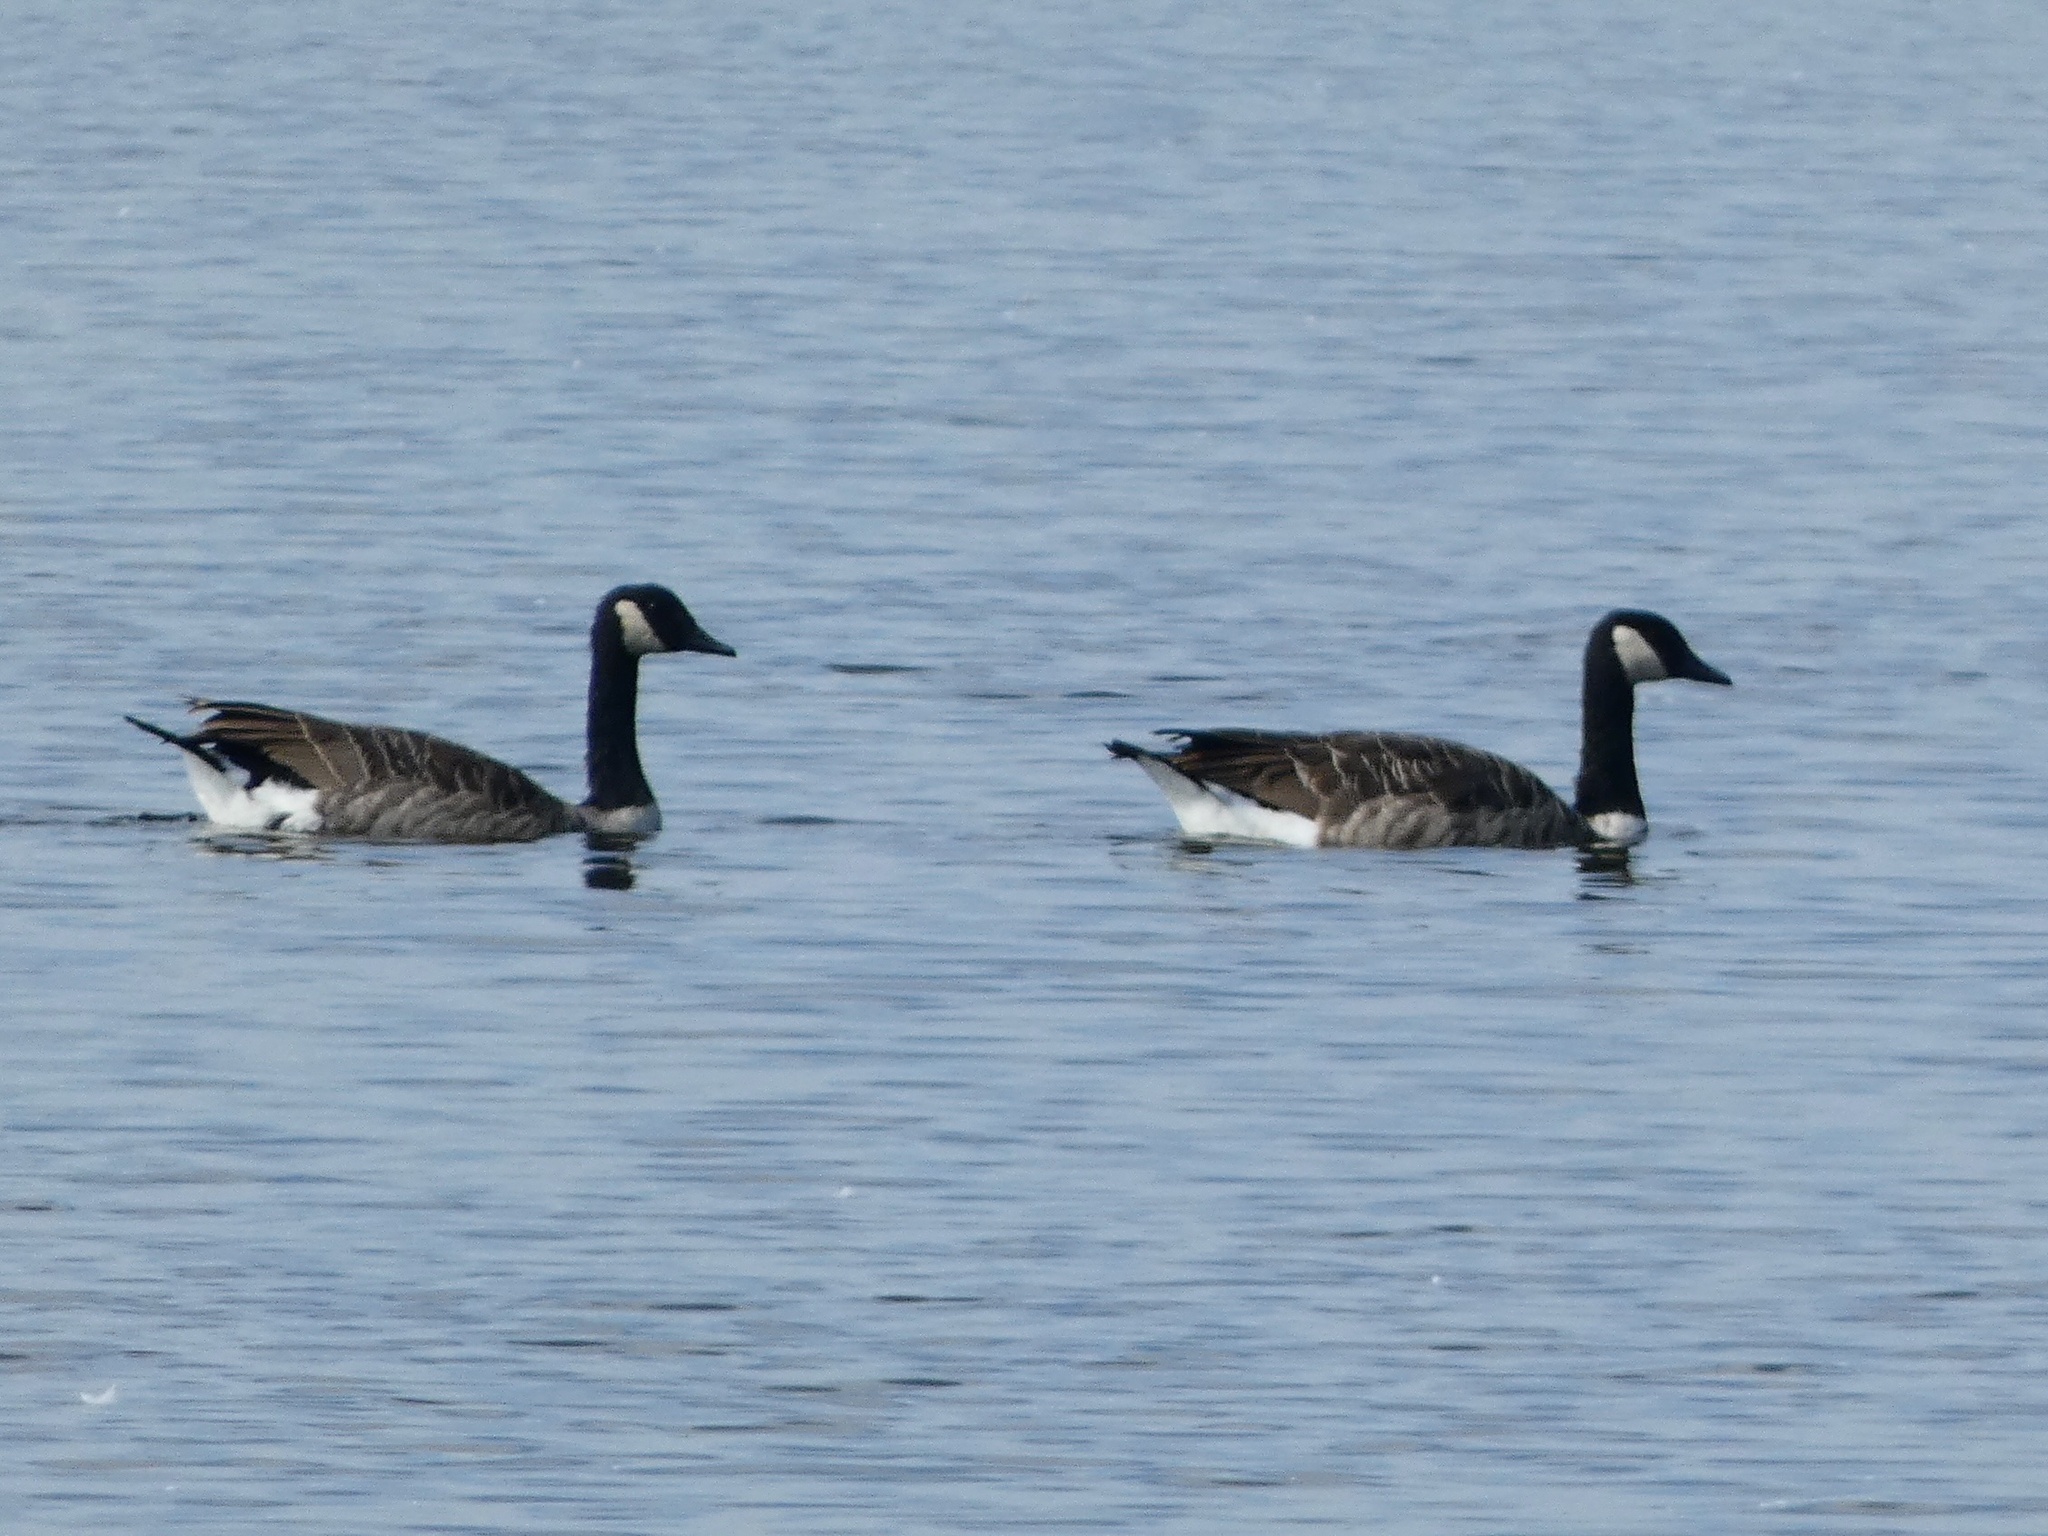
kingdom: Animalia
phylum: Chordata
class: Aves
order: Anseriformes
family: Anatidae
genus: Branta
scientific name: Branta canadensis
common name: Canada goose
